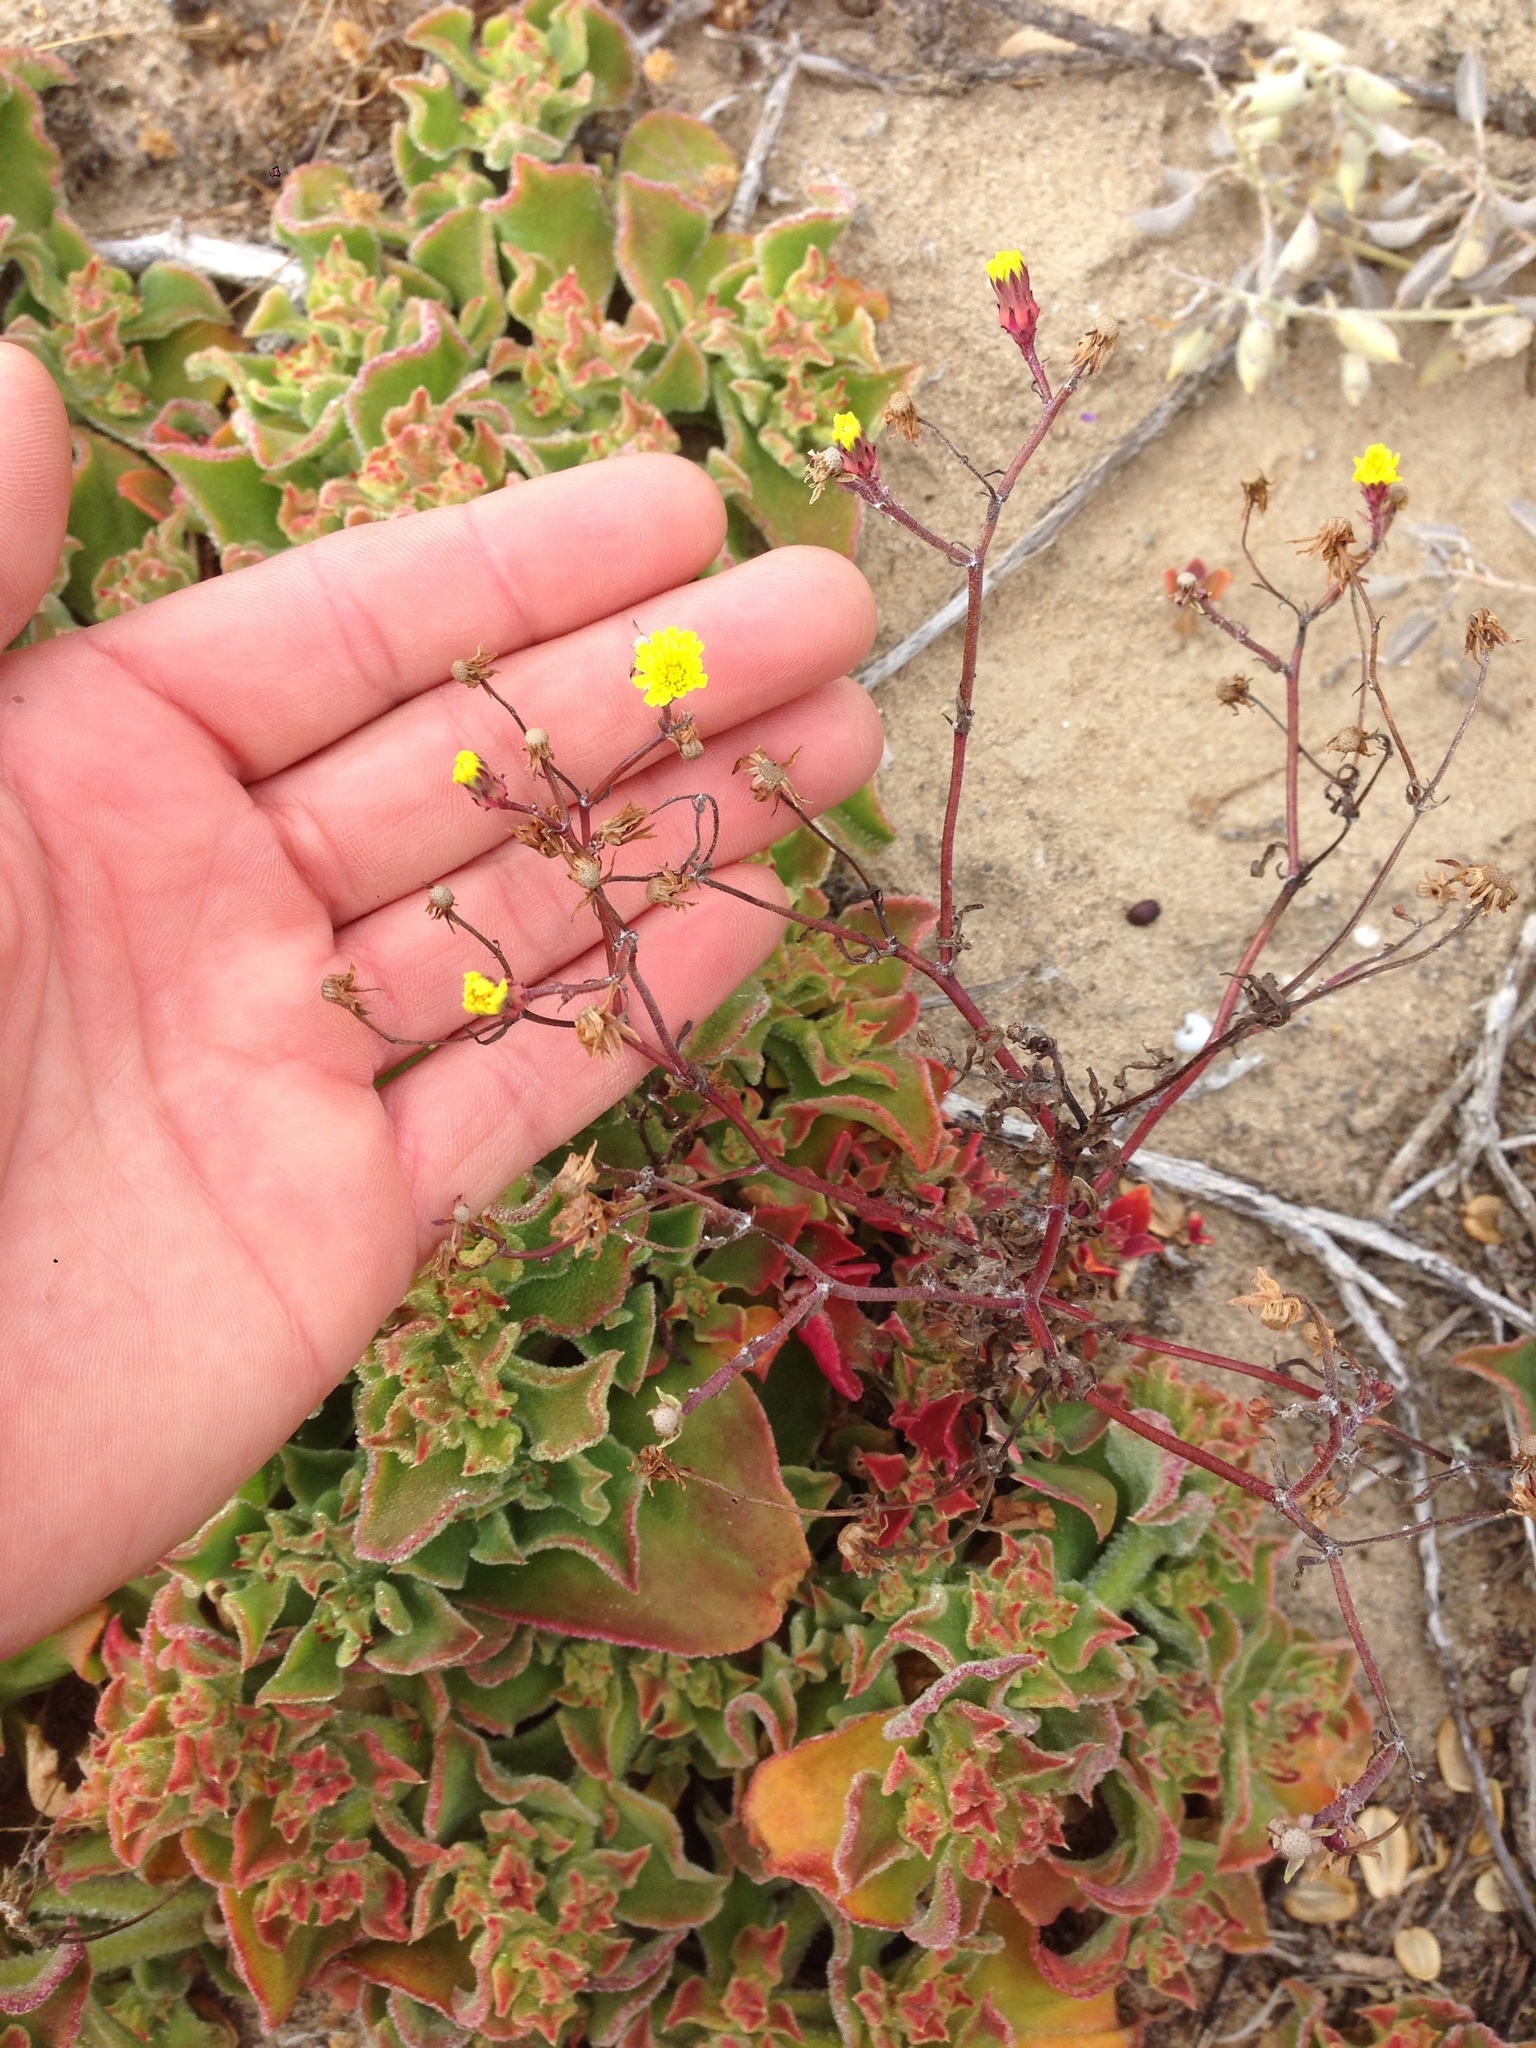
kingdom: Plantae
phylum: Tracheophyta
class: Magnoliopsida
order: Asterales
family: Asteraceae
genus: Malacothrix
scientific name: Malacothrix foliosa
